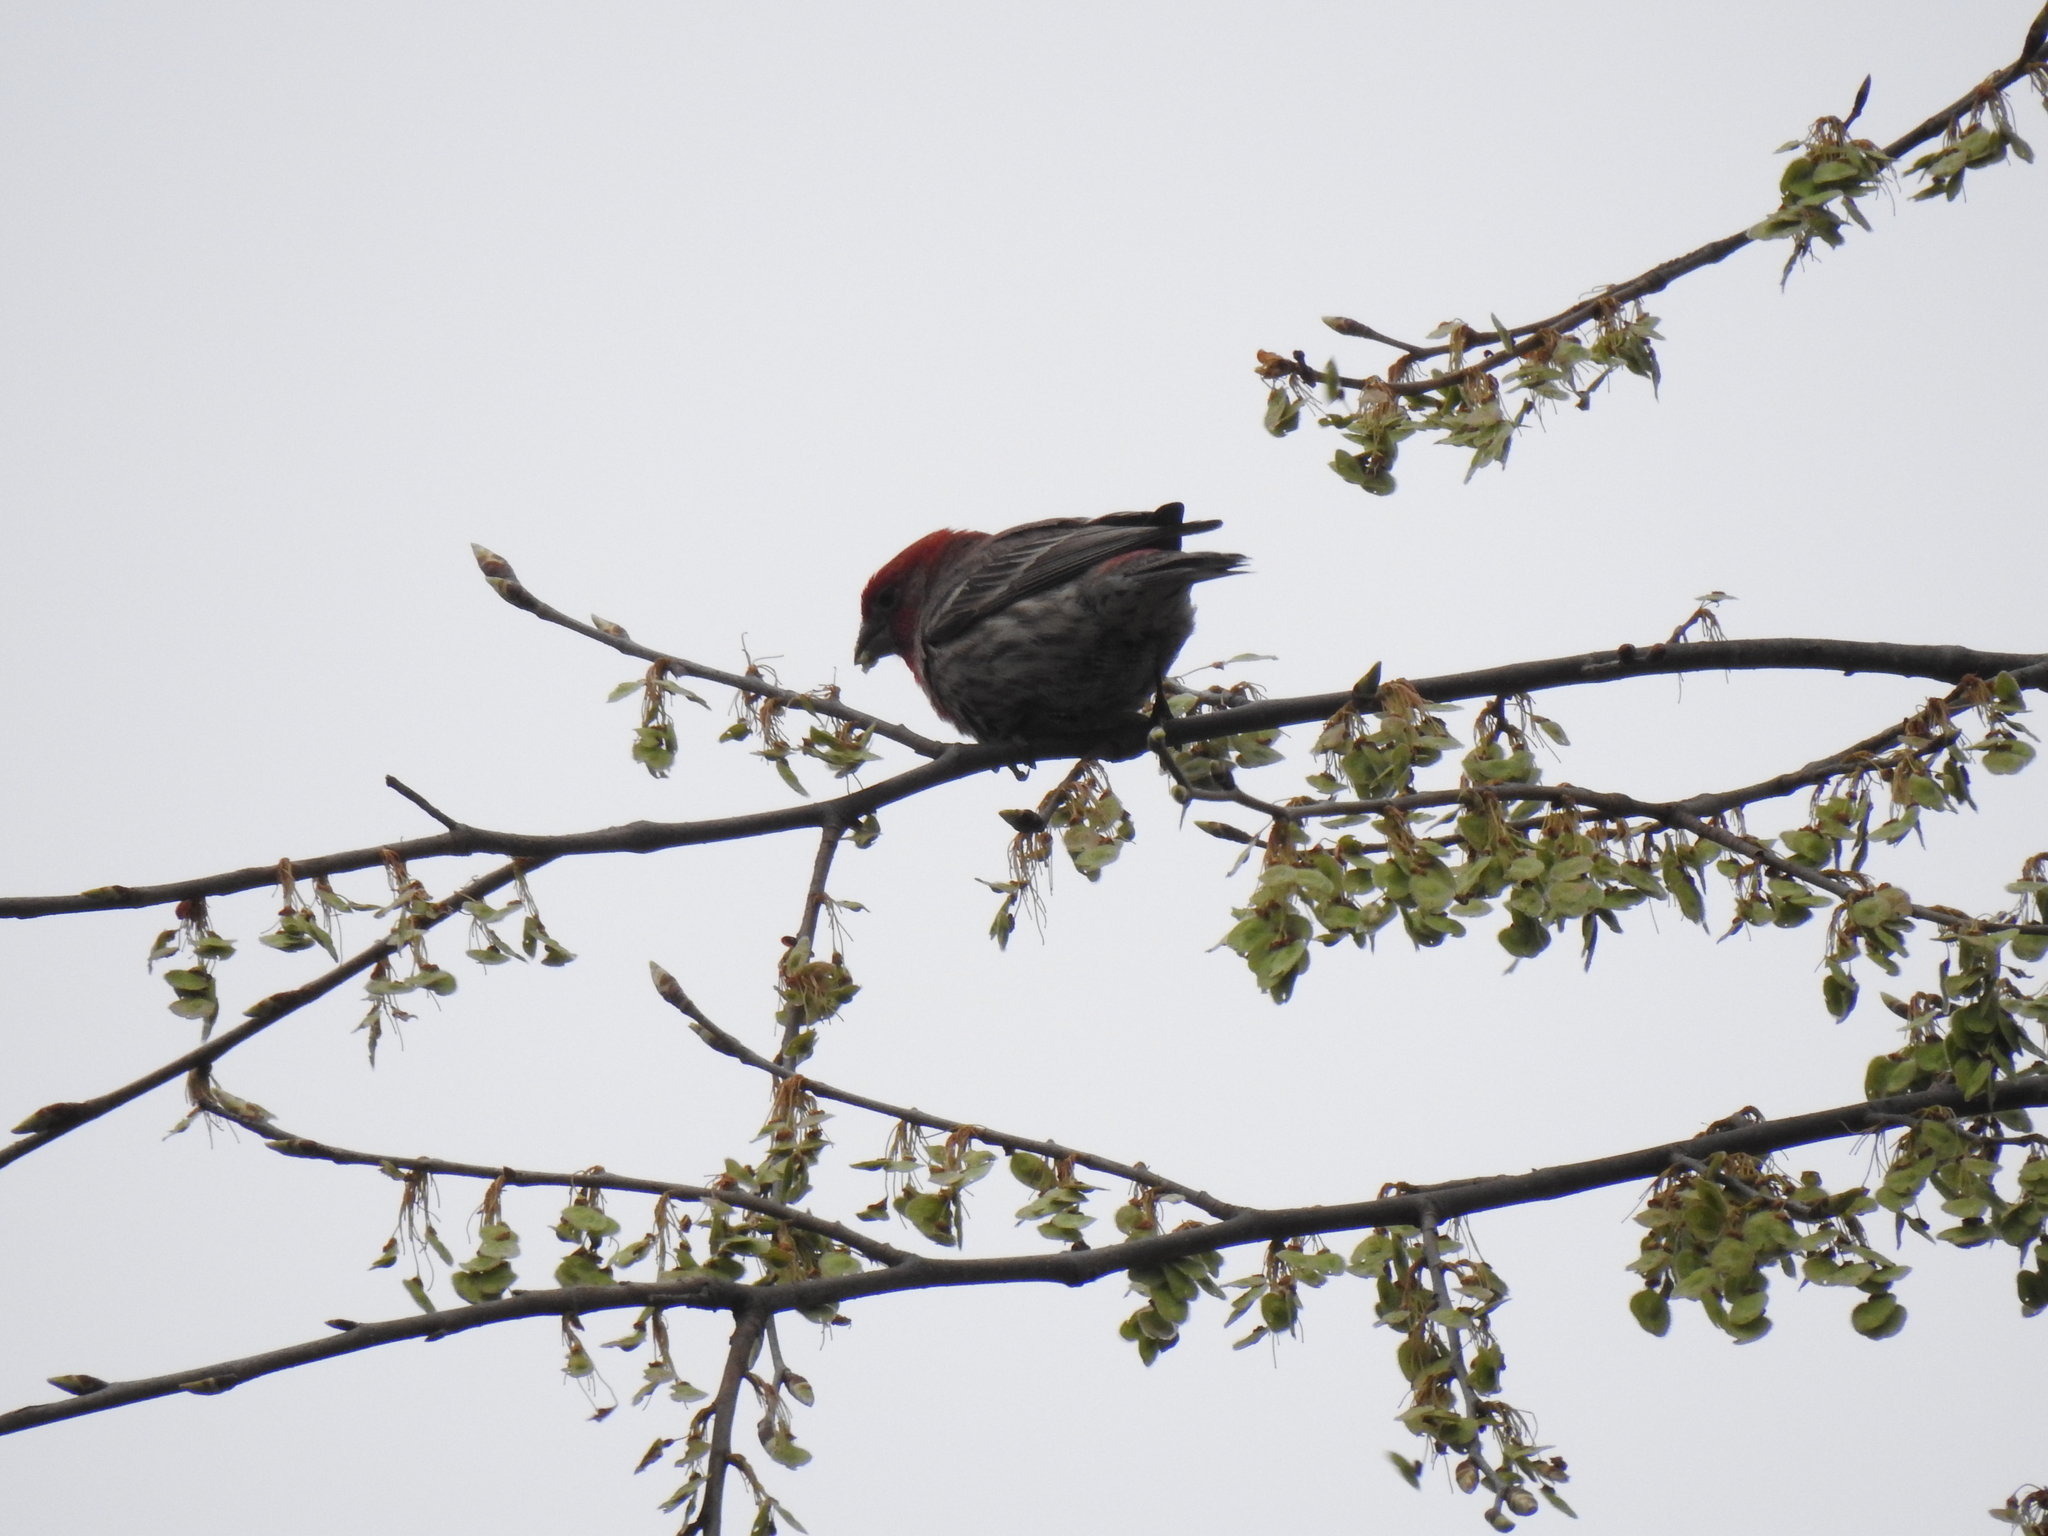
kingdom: Animalia
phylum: Chordata
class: Aves
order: Passeriformes
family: Fringillidae
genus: Haemorhous
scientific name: Haemorhous mexicanus
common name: House finch
